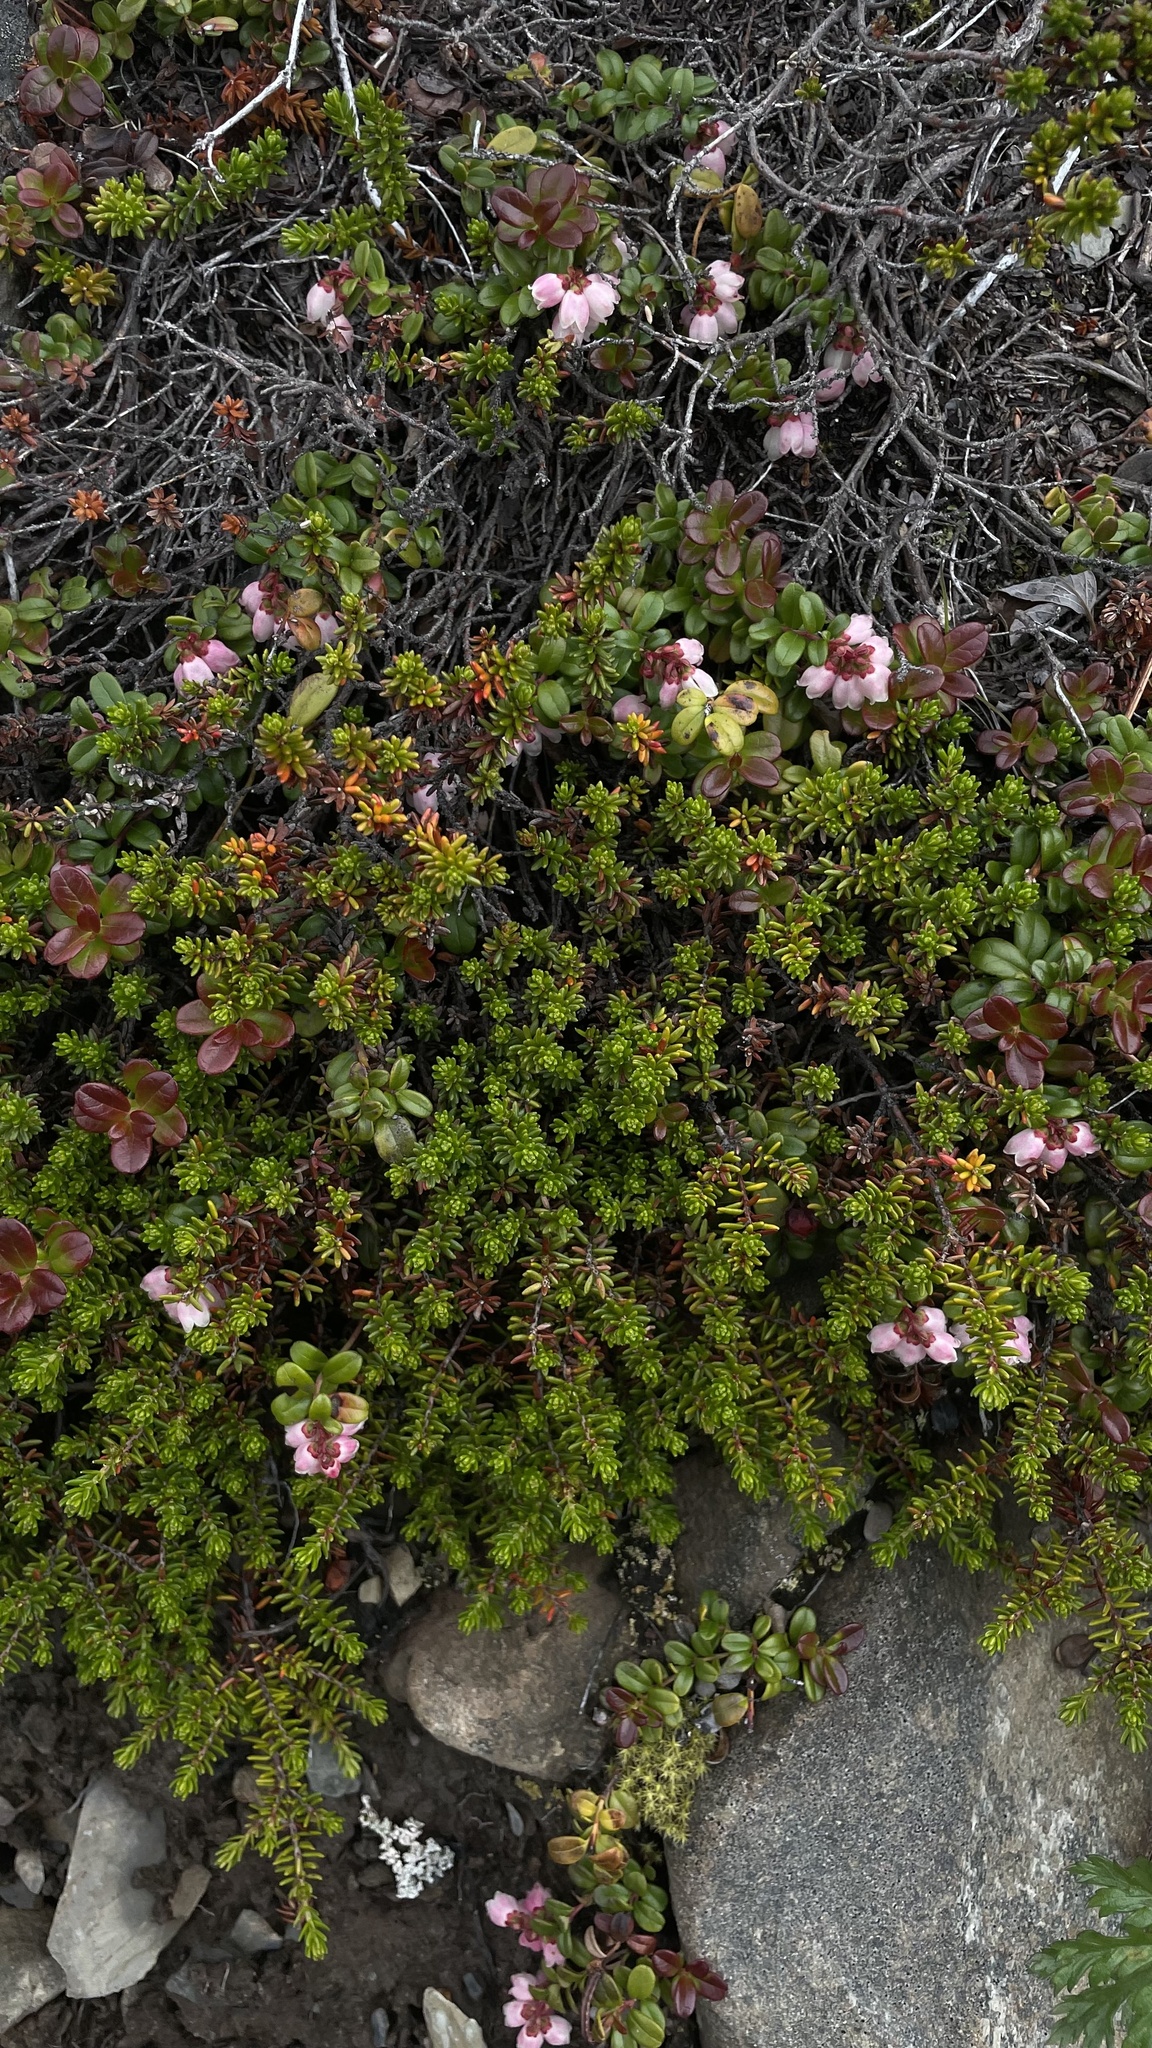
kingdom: Plantae
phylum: Tracheophyta
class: Magnoliopsida
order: Ericales
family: Ericaceae
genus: Vaccinium
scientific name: Vaccinium vitis-idaea
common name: Cowberry
